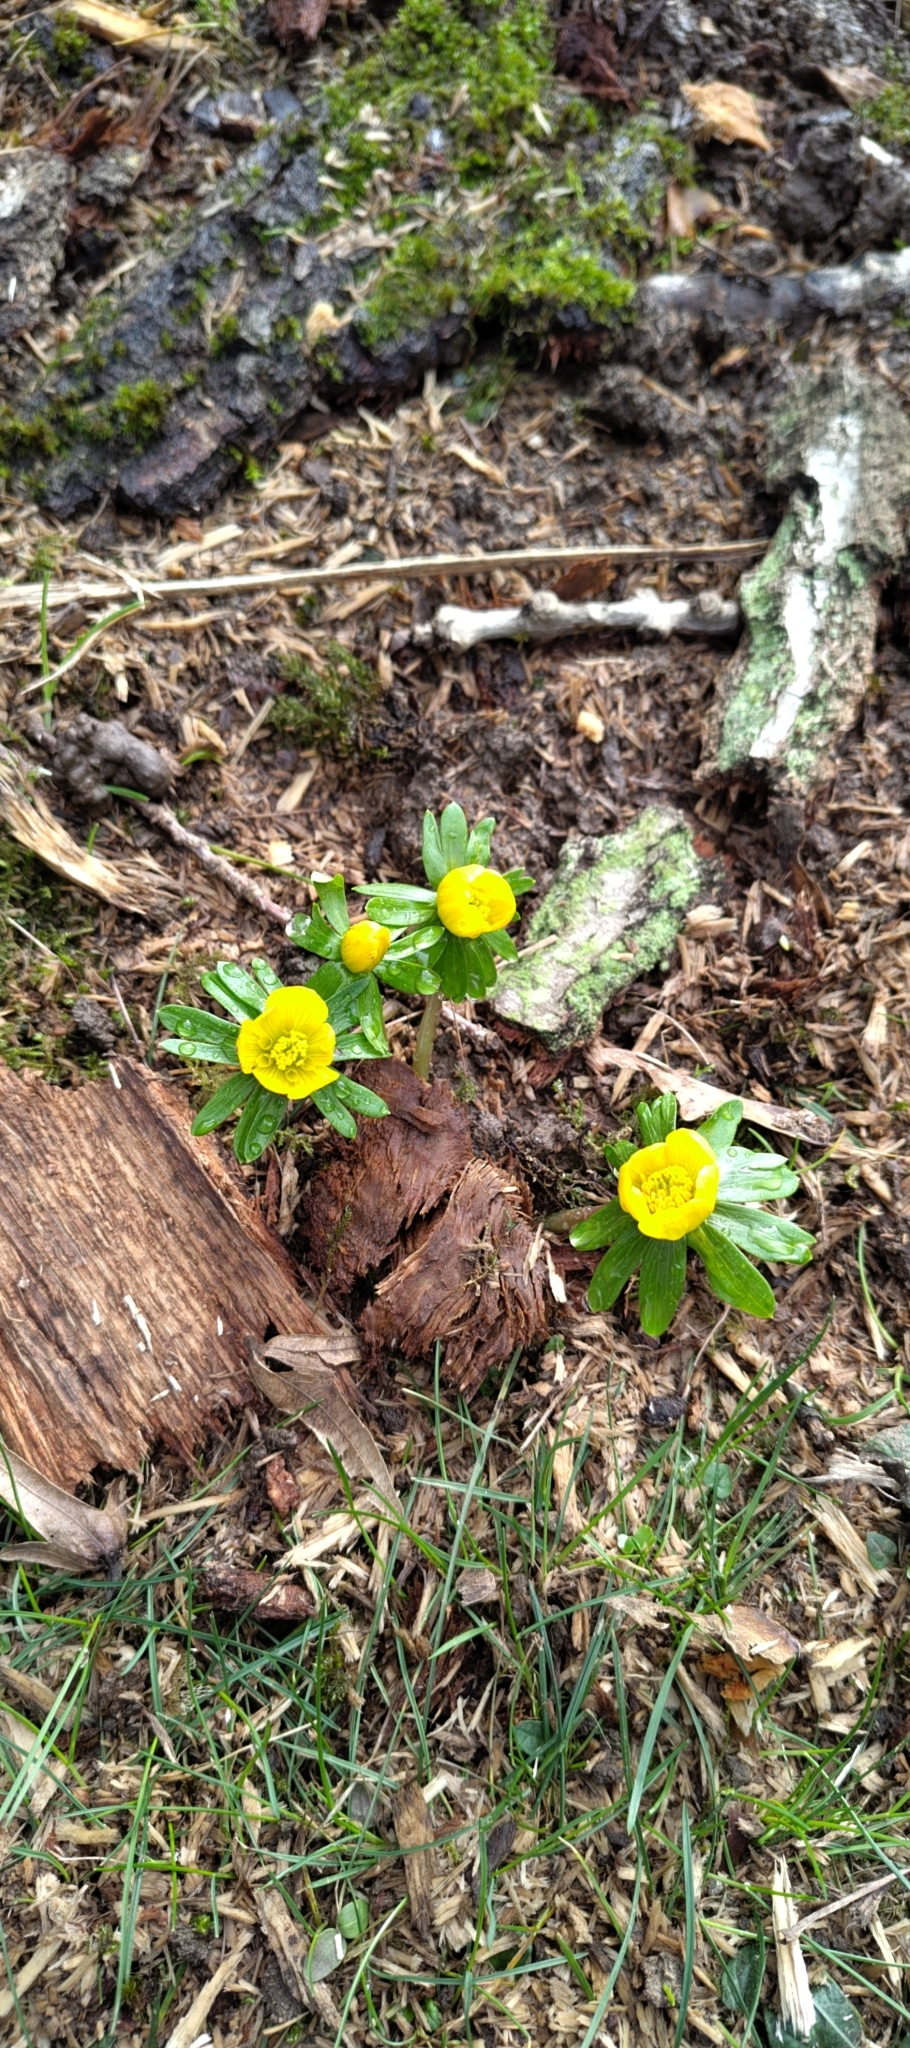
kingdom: Plantae
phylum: Tracheophyta
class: Magnoliopsida
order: Ranunculales
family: Ranunculaceae
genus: Eranthis
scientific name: Eranthis hyemalis
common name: Winter aconite
